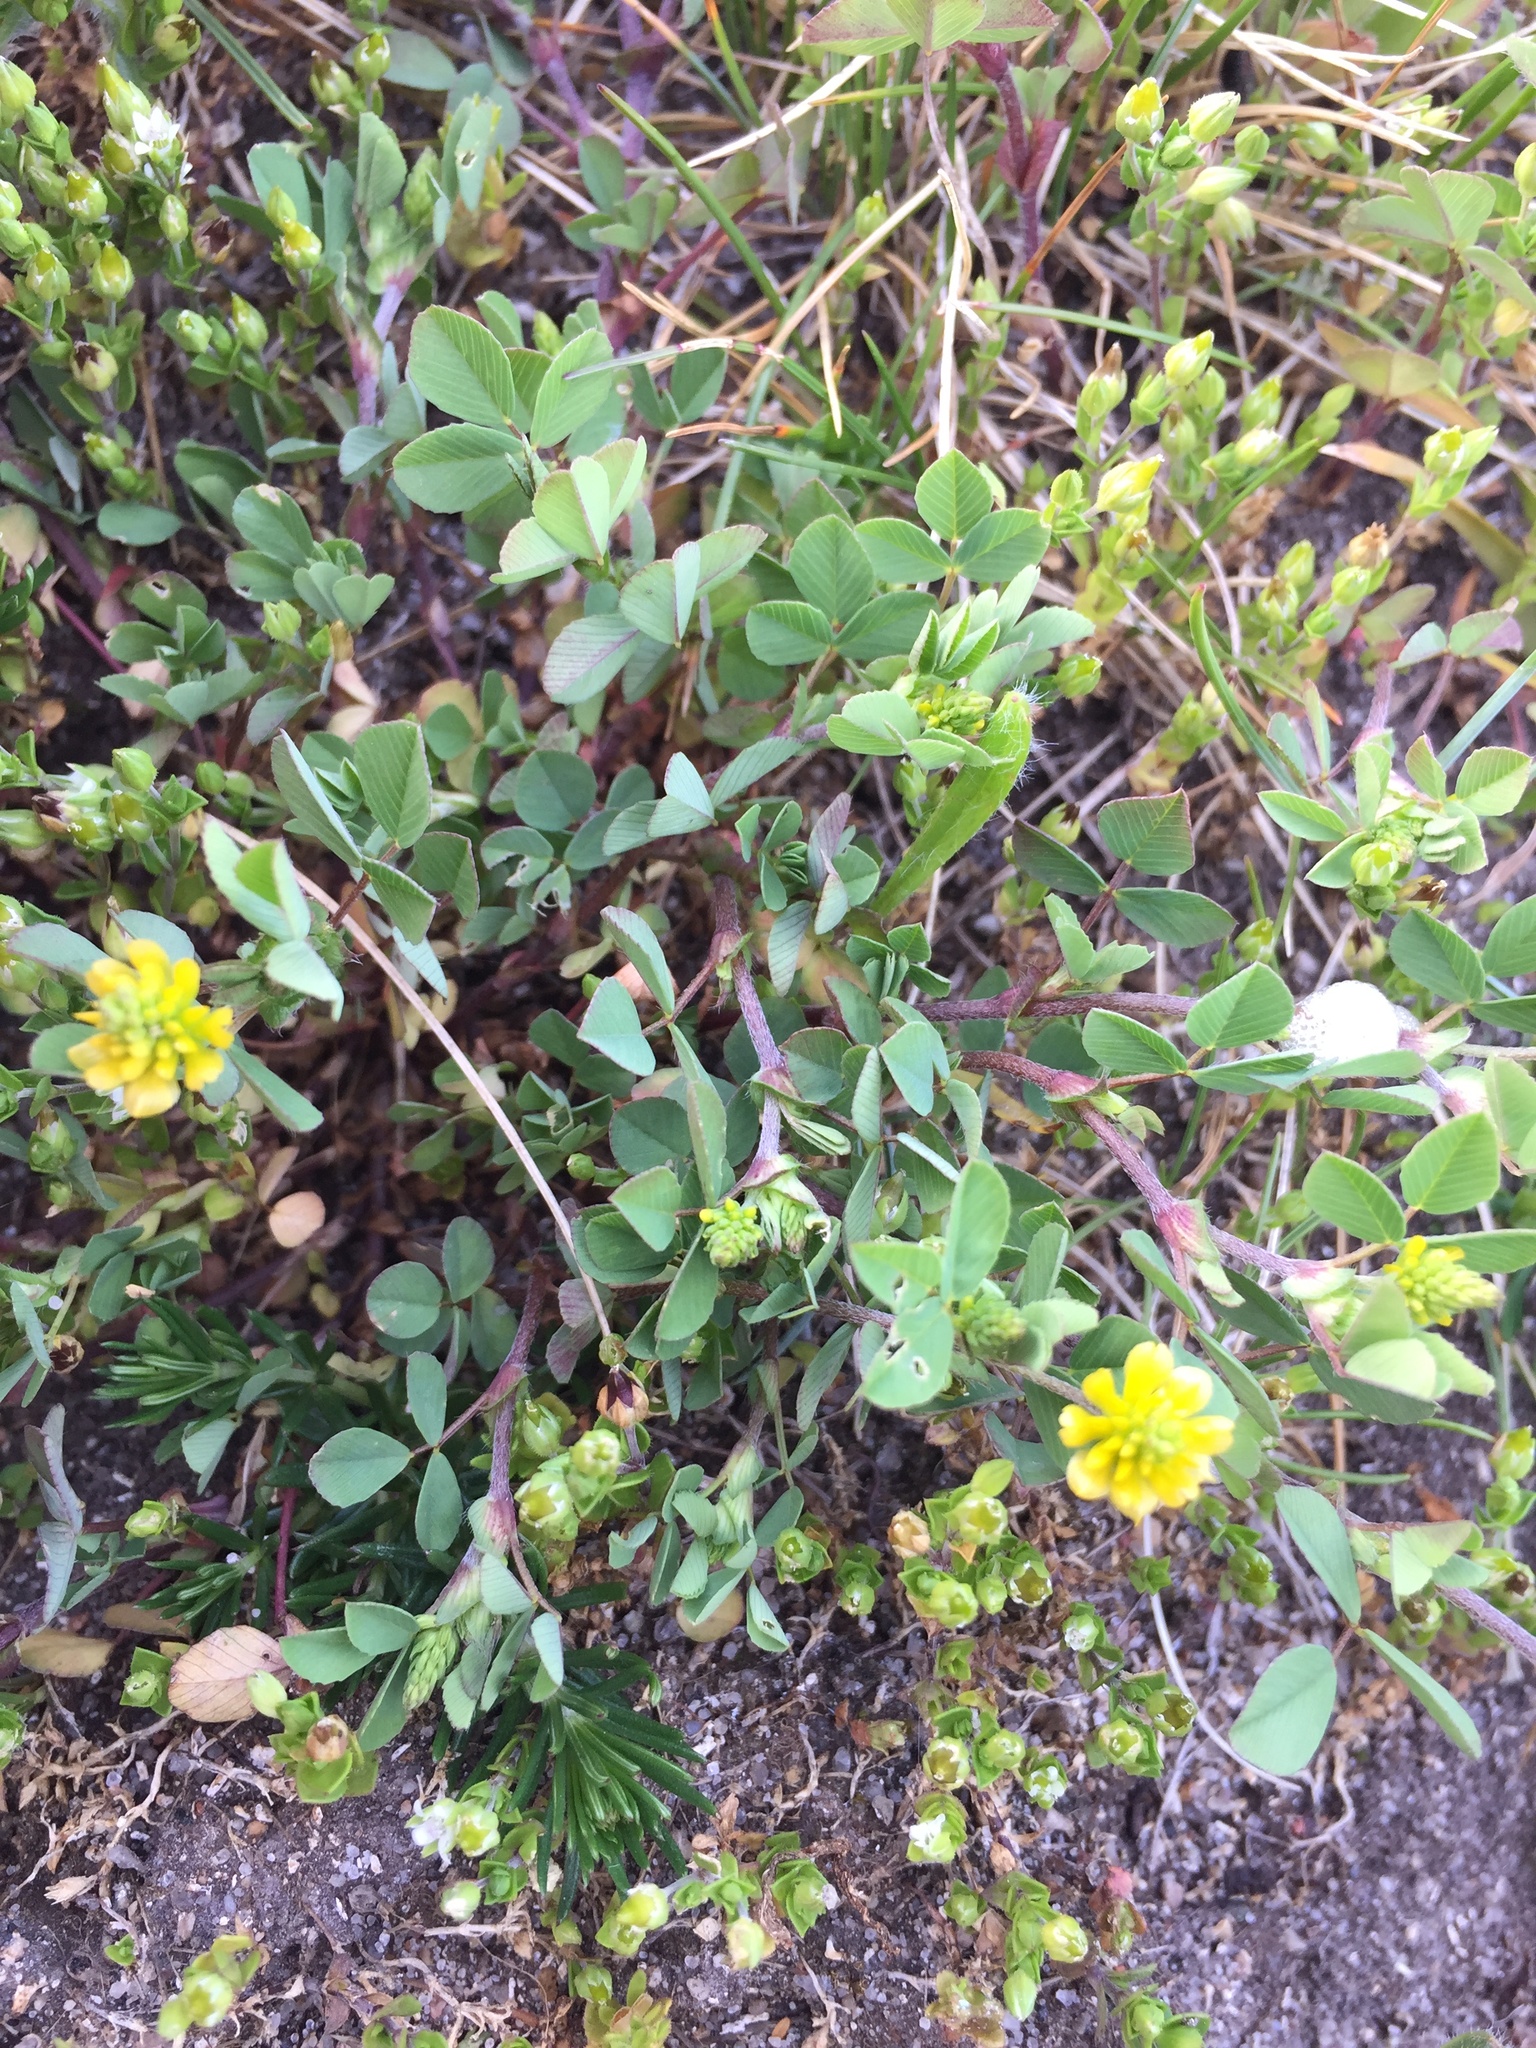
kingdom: Plantae
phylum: Tracheophyta
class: Magnoliopsida
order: Fabales
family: Fabaceae
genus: Trifolium
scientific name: Trifolium campestre
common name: Field clover
